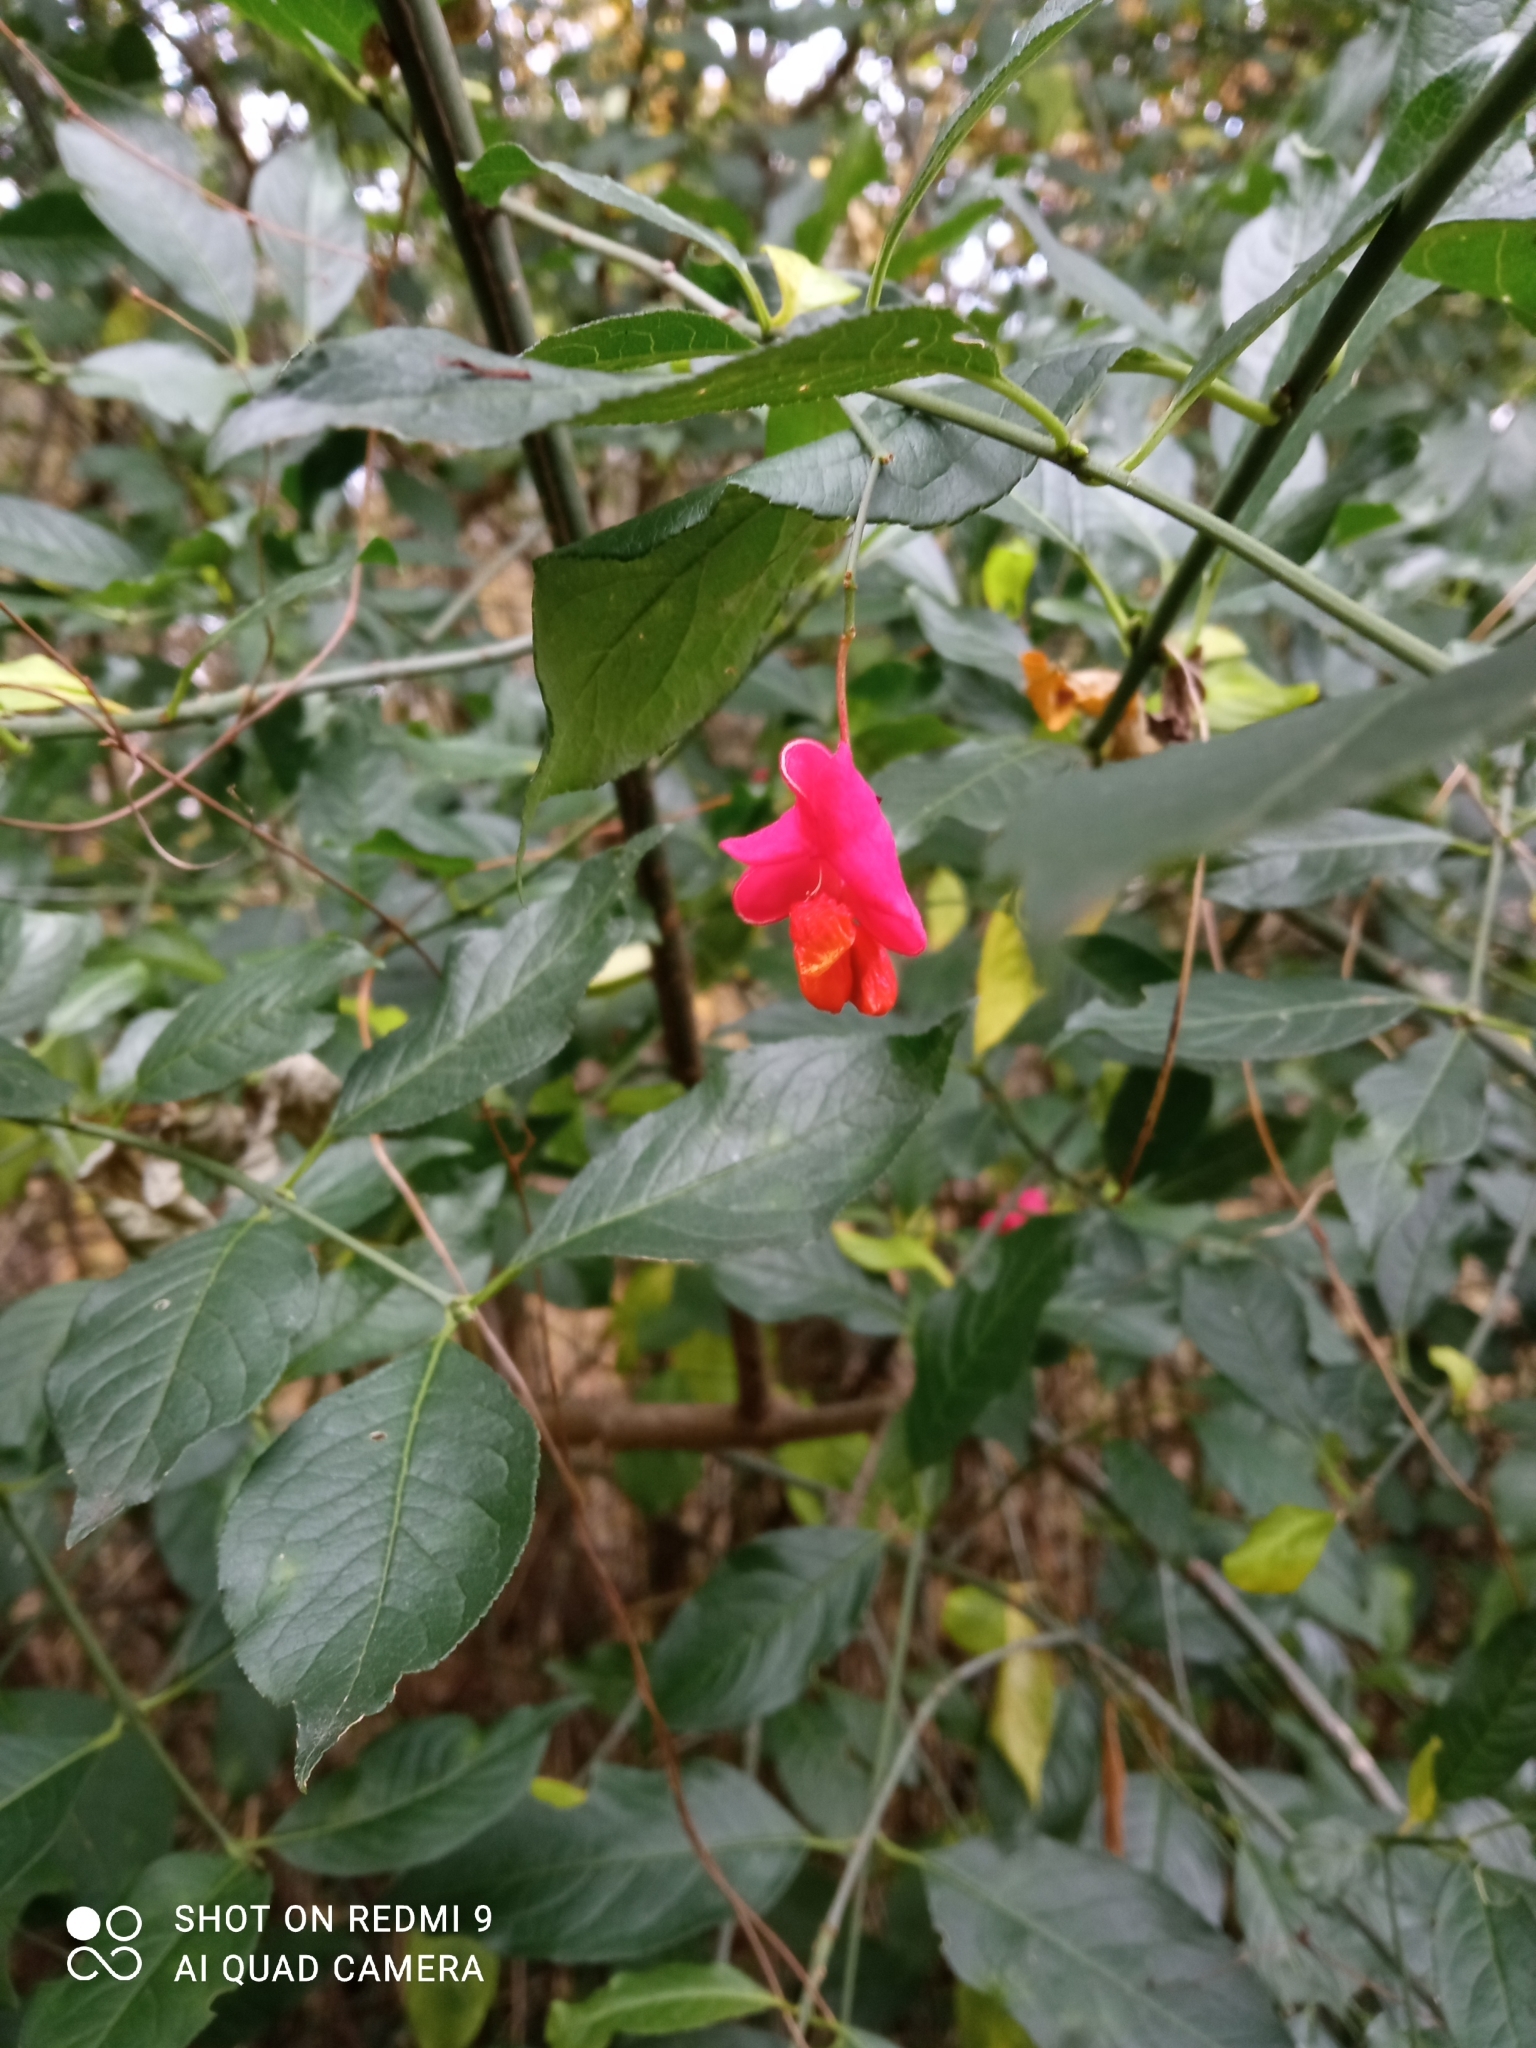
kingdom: Plantae
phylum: Tracheophyta
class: Magnoliopsida
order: Celastrales
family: Celastraceae
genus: Euonymus
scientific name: Euonymus europaeus
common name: Spindle
